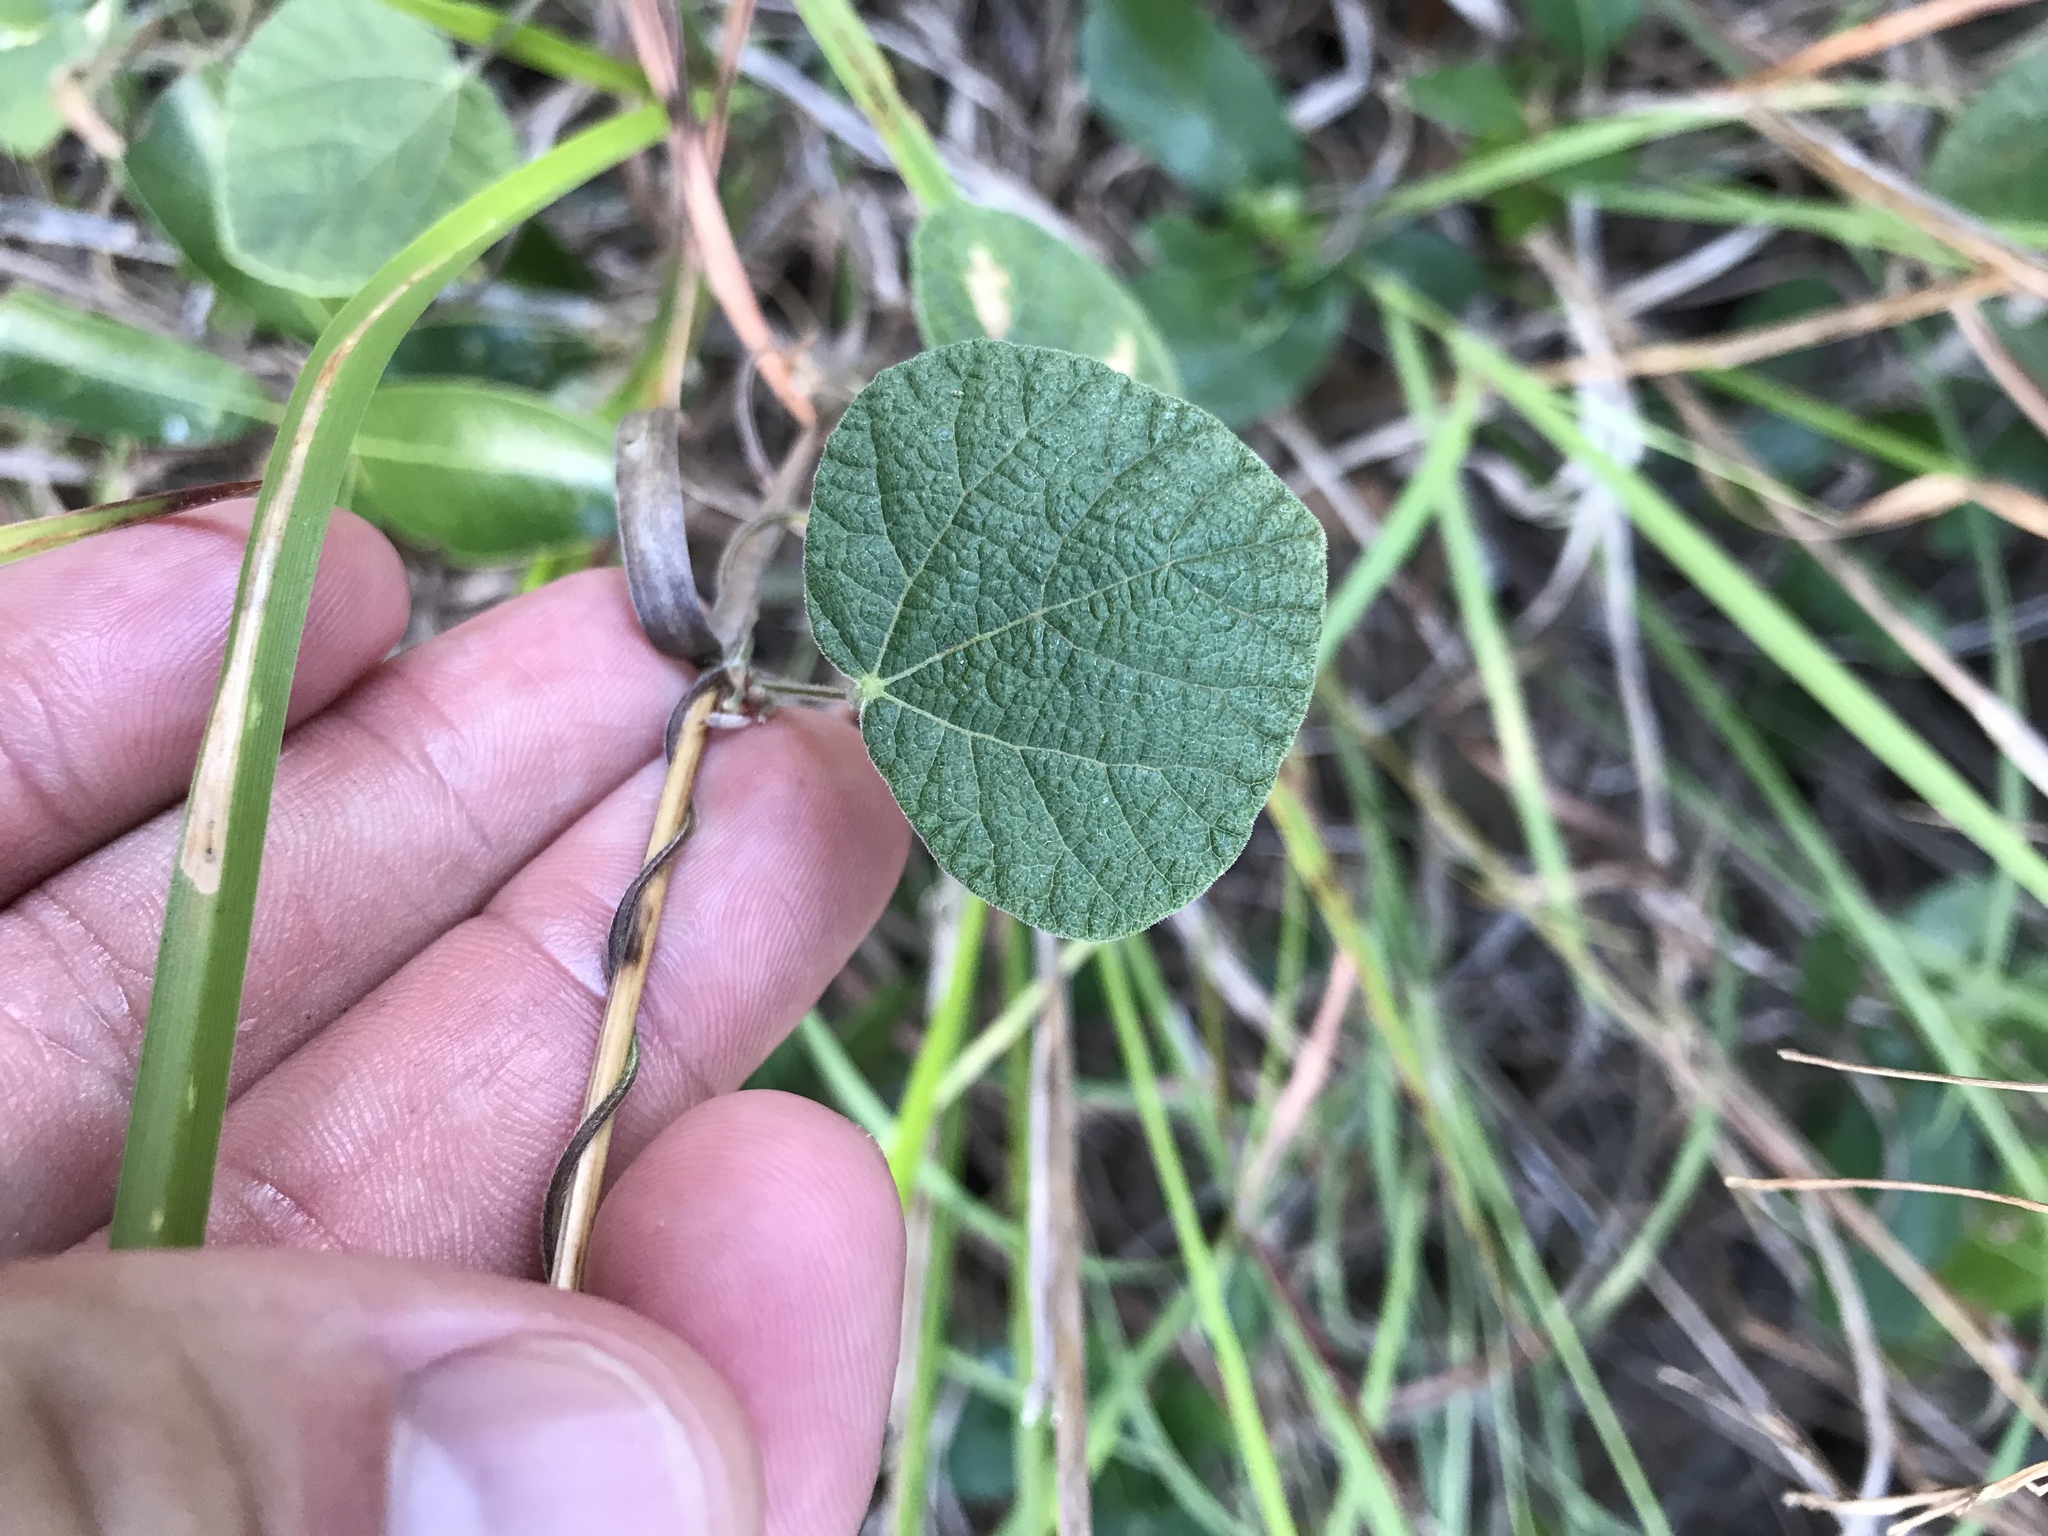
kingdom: Plantae
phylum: Tracheophyta
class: Magnoliopsida
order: Fabales
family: Fabaceae
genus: Rhynchosia
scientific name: Rhynchosia americana
